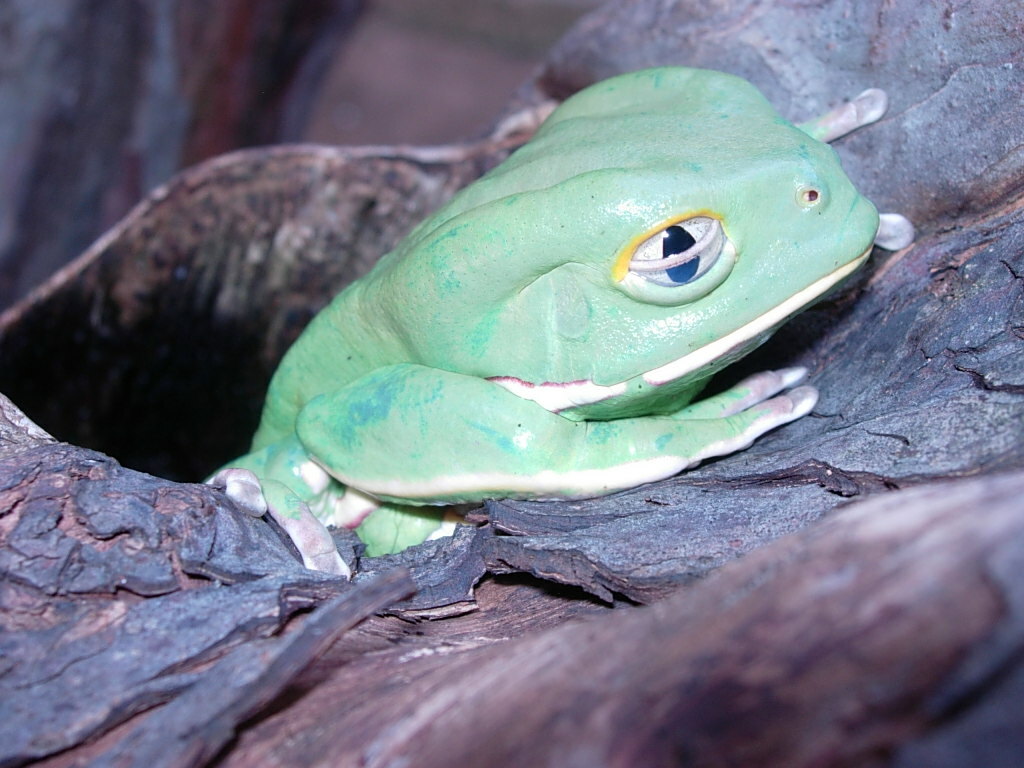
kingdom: Animalia
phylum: Chordata
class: Amphibia
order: Anura
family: Phyllomedusidae
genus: Phyllomedusa
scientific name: Phyllomedusa sauvagii
